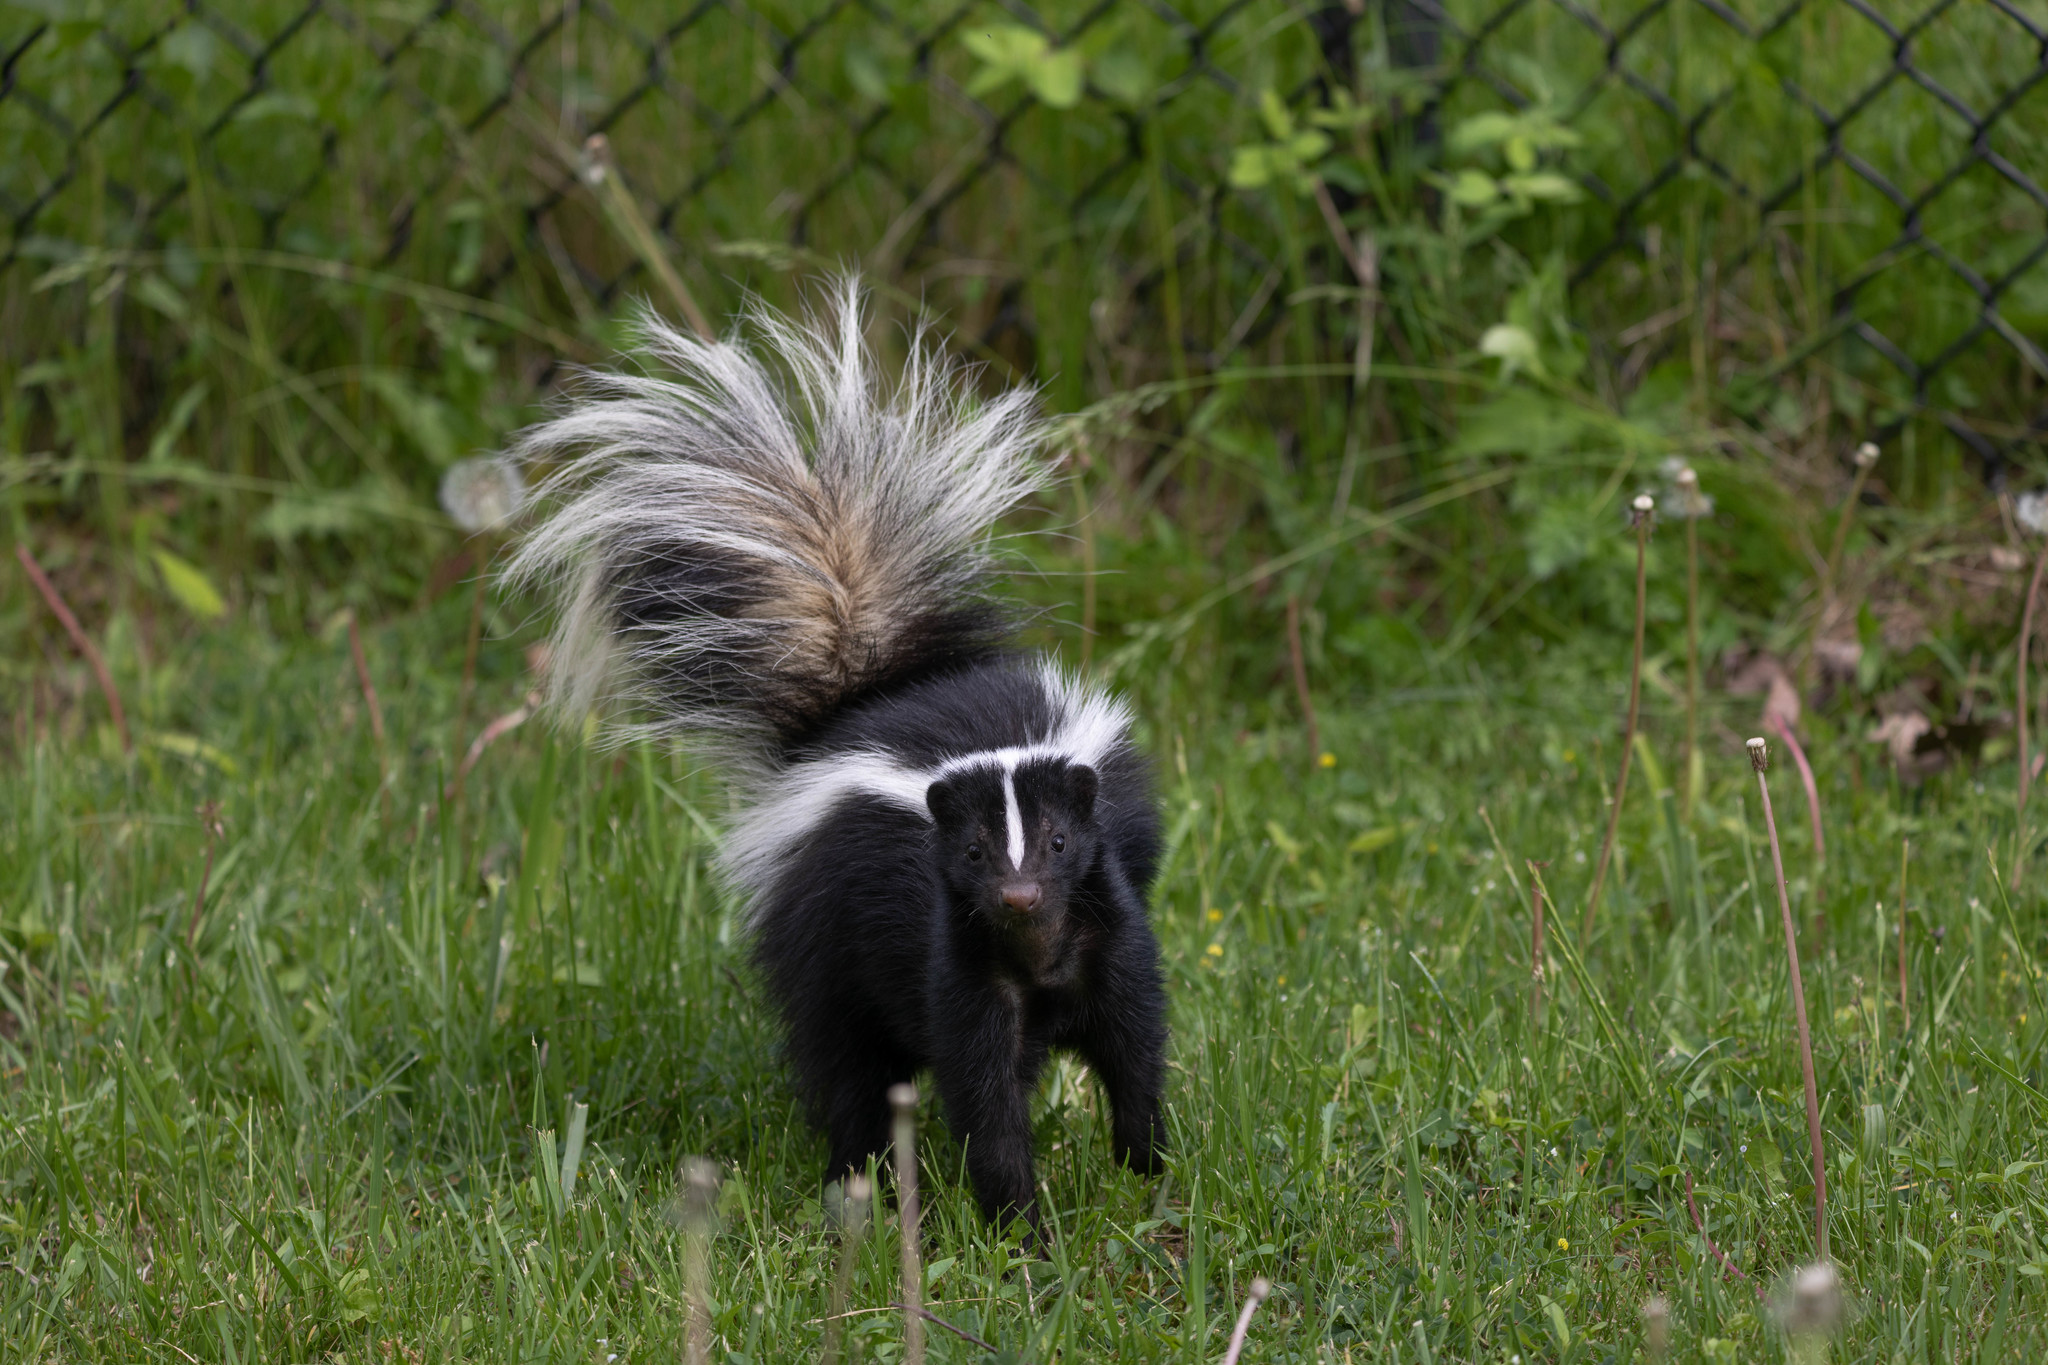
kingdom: Animalia
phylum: Chordata
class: Mammalia
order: Carnivora
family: Mephitidae
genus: Mephitis
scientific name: Mephitis mephitis
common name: Striped skunk
